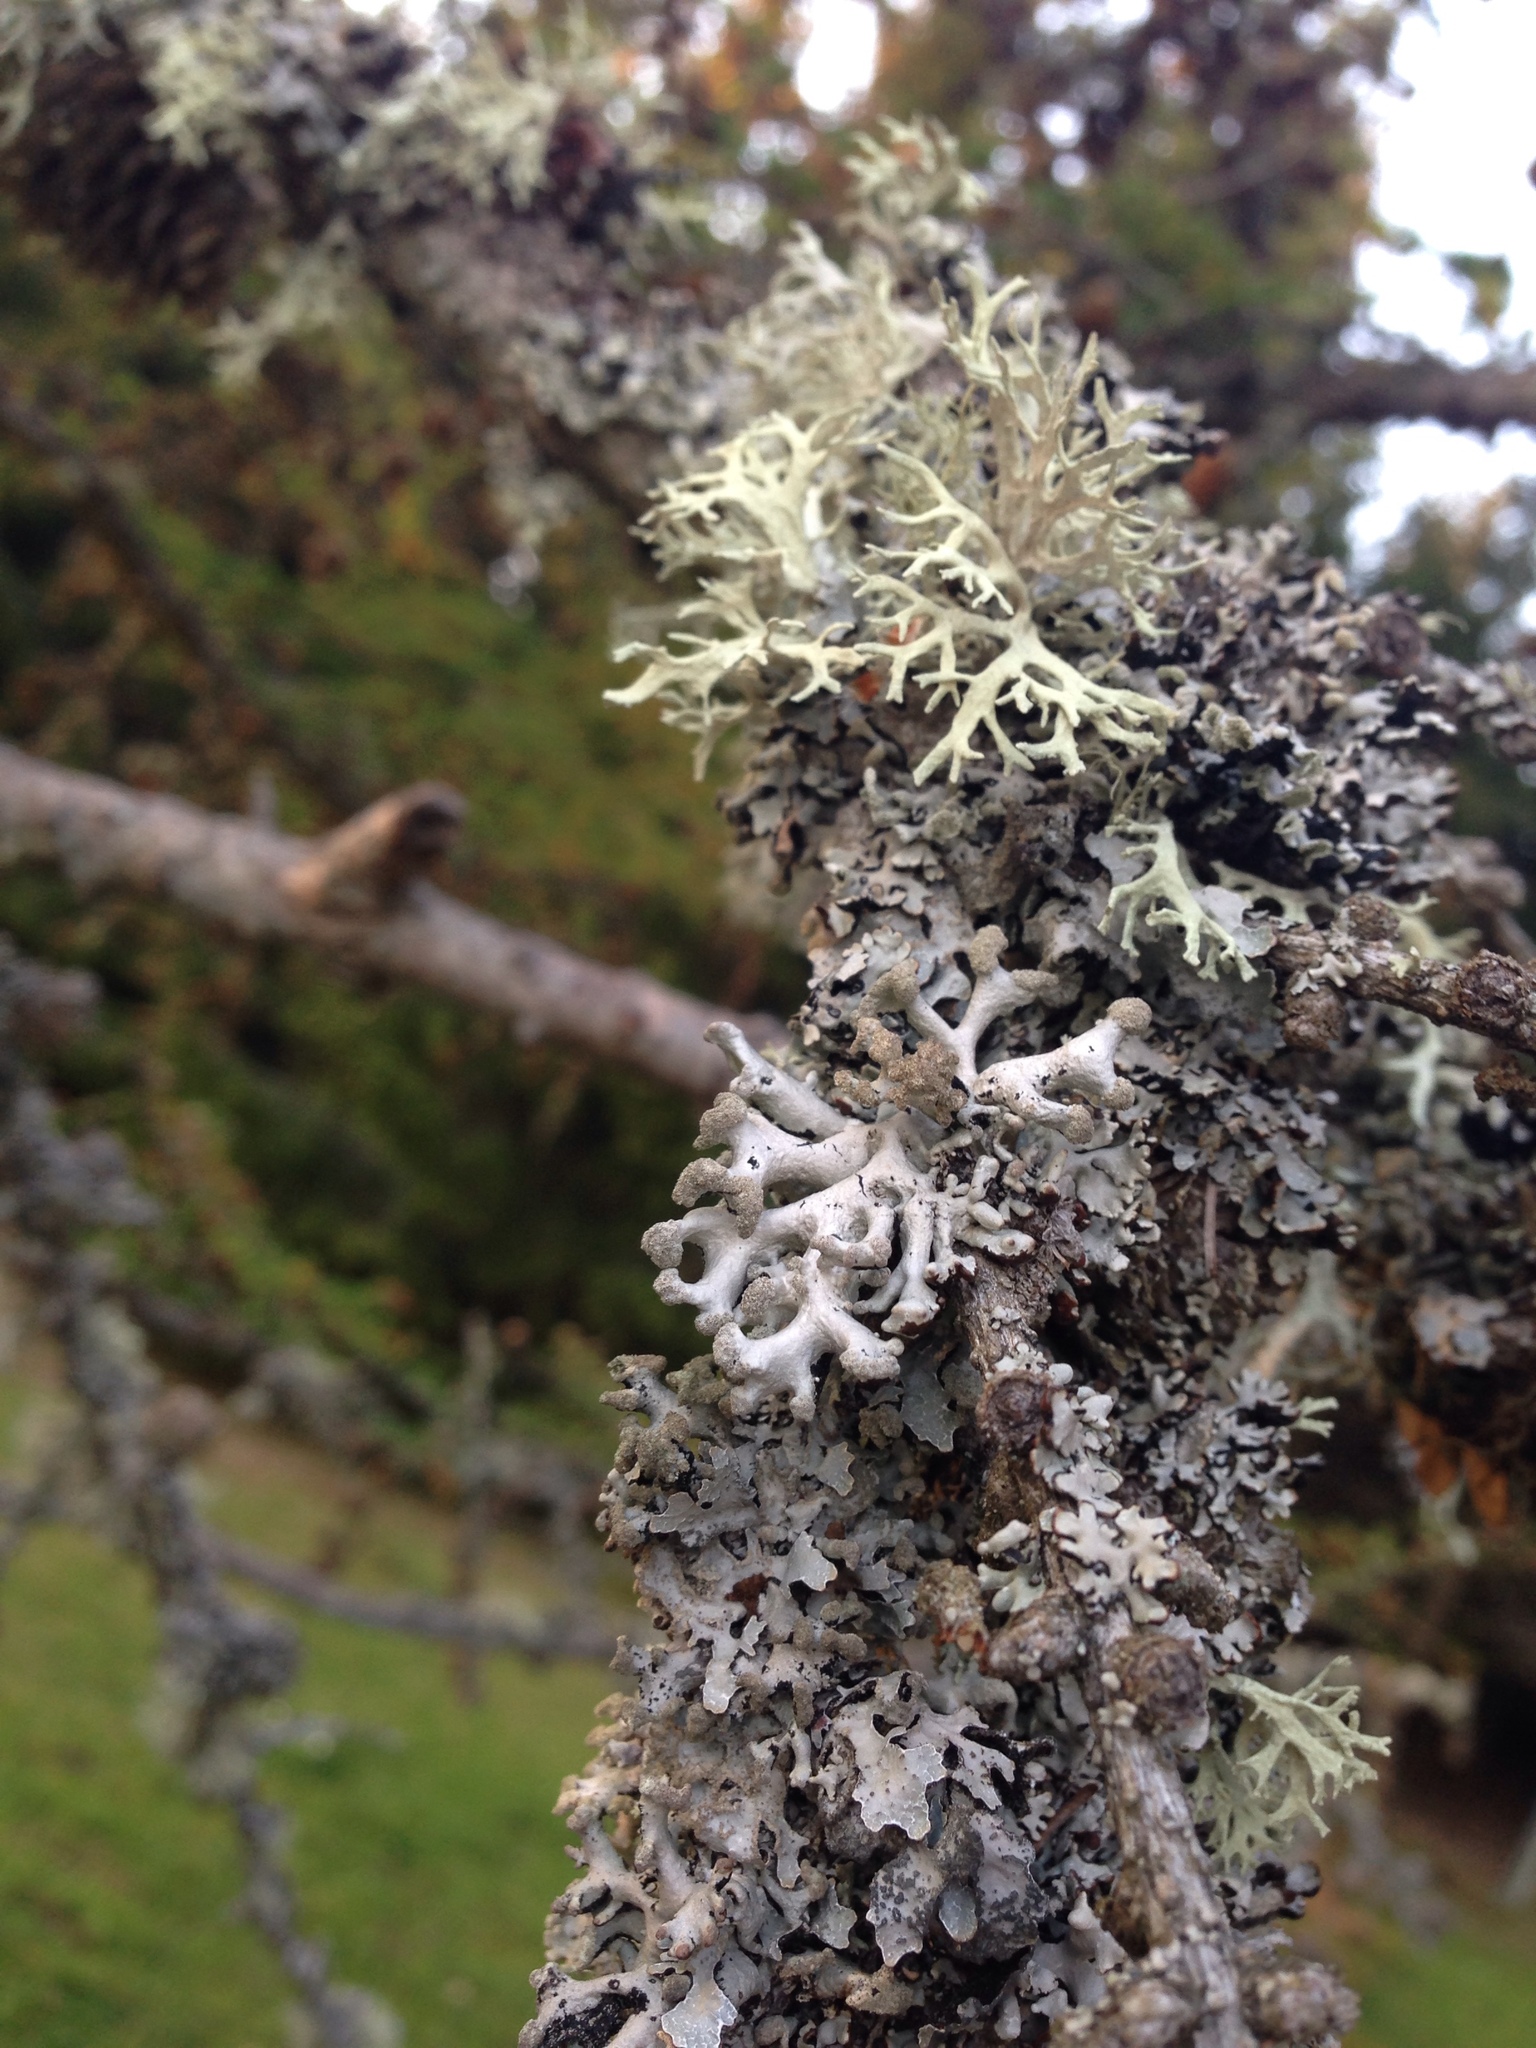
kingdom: Fungi
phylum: Ascomycota
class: Lecanoromycetes
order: Lecanorales
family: Parmeliaceae
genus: Hypogymnia
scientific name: Hypogymnia tubulosa
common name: Powder-headed tube lichen
